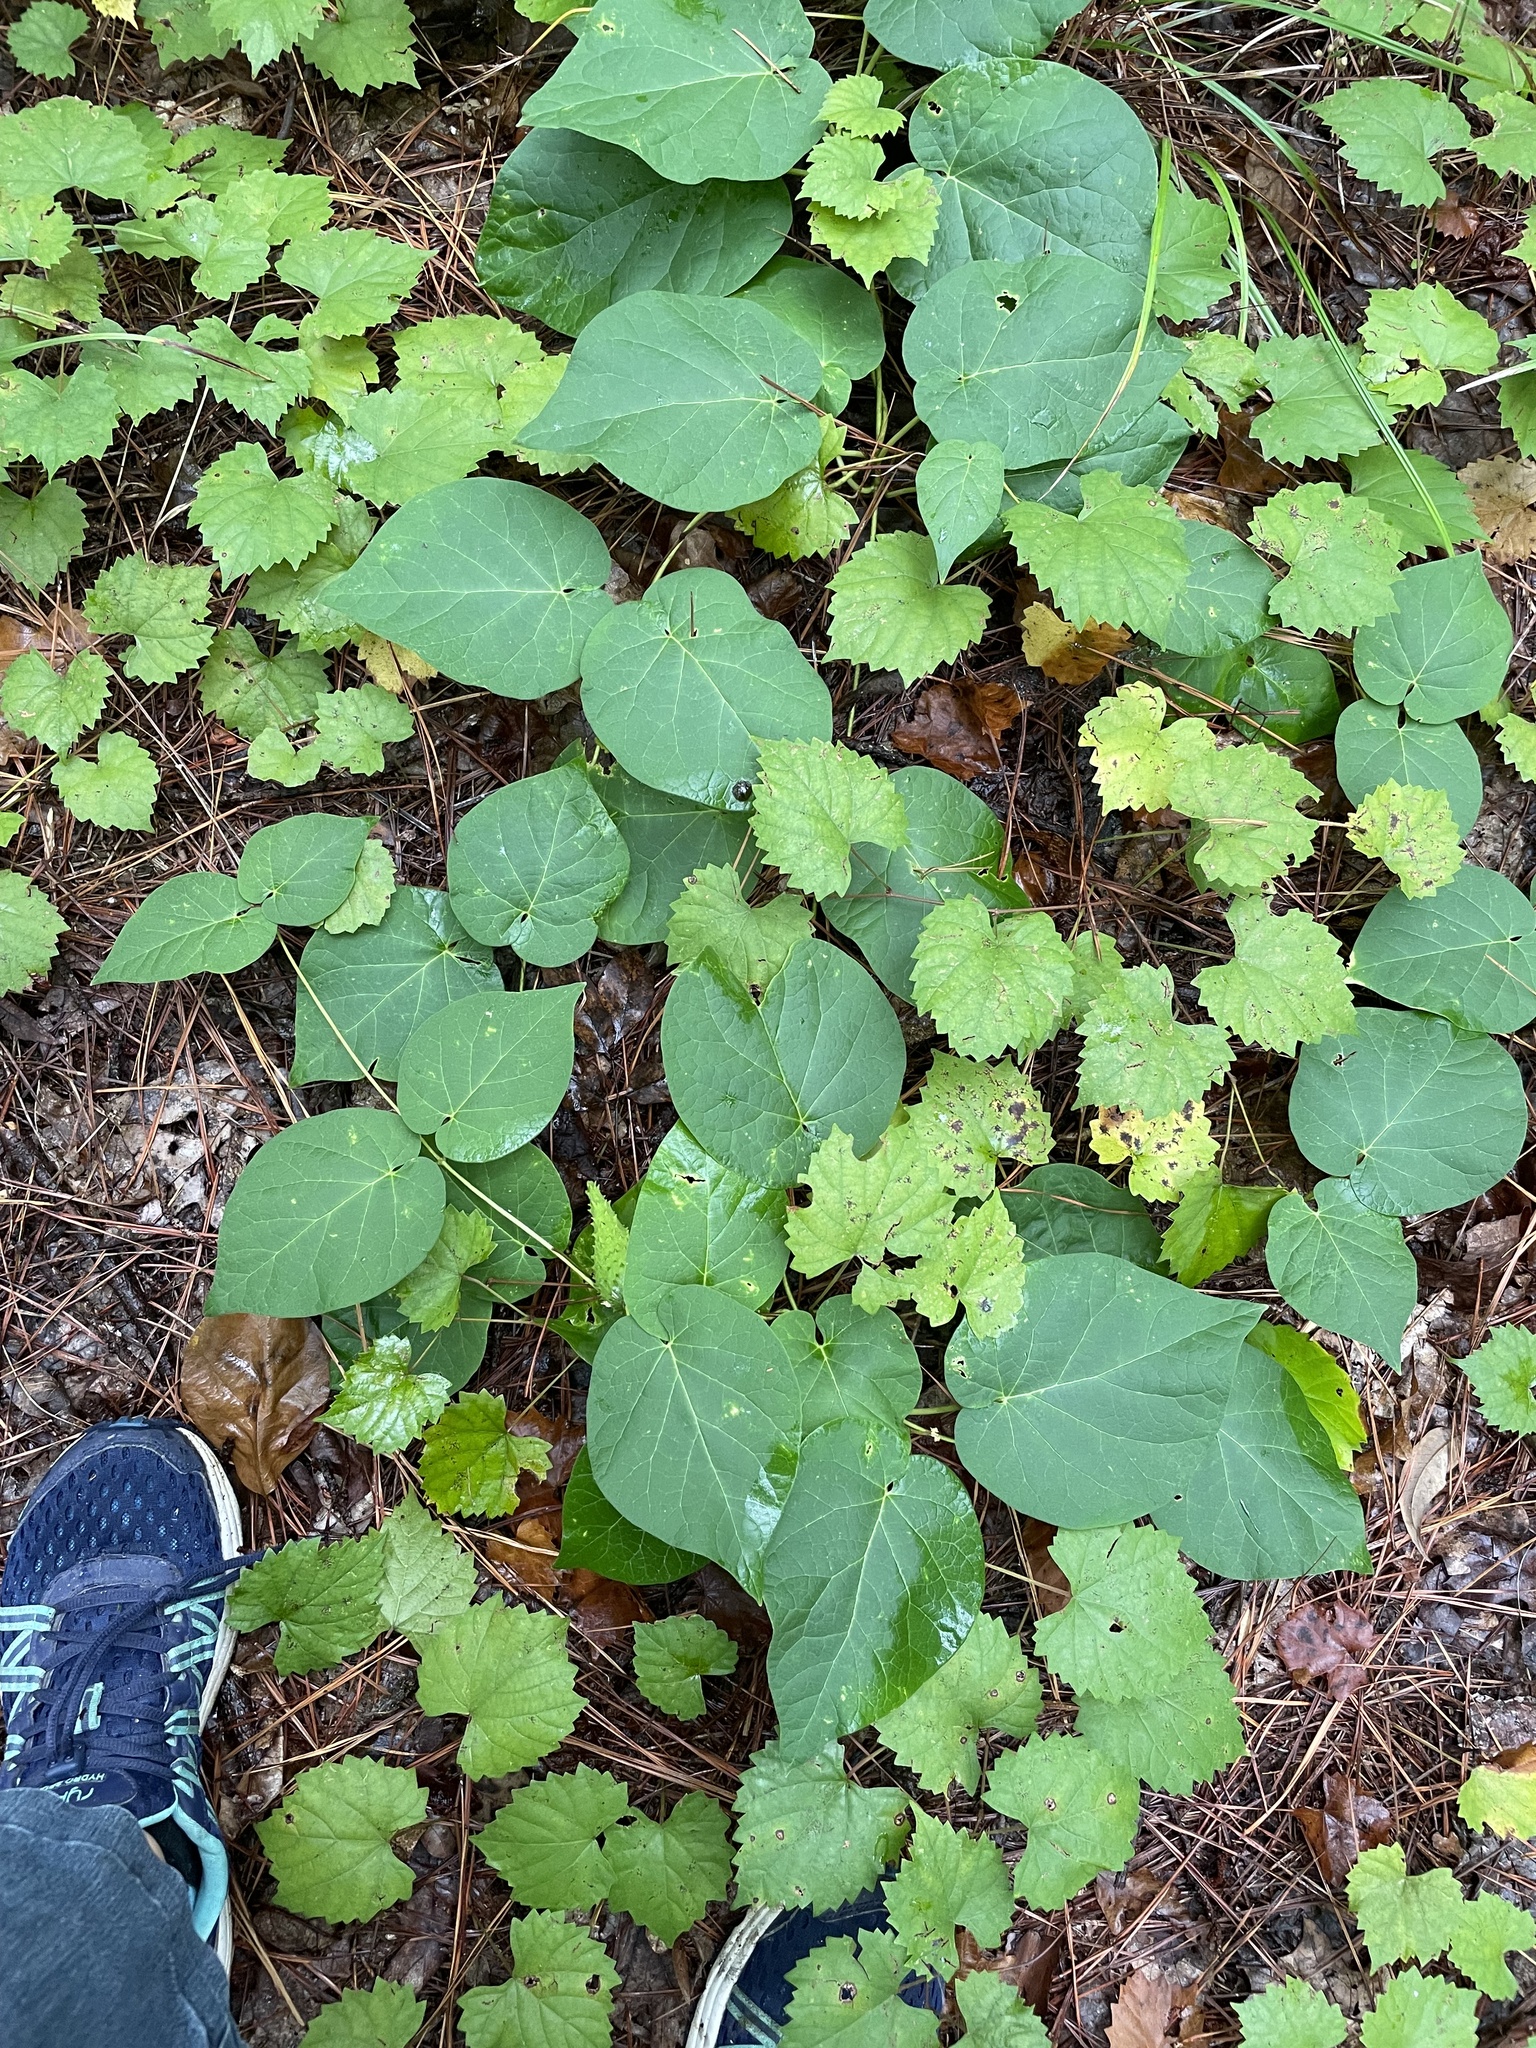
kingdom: Plantae
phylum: Tracheophyta
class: Magnoliopsida
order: Gentianales
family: Apocynaceae
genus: Matelea
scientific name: Matelea carolinensis
